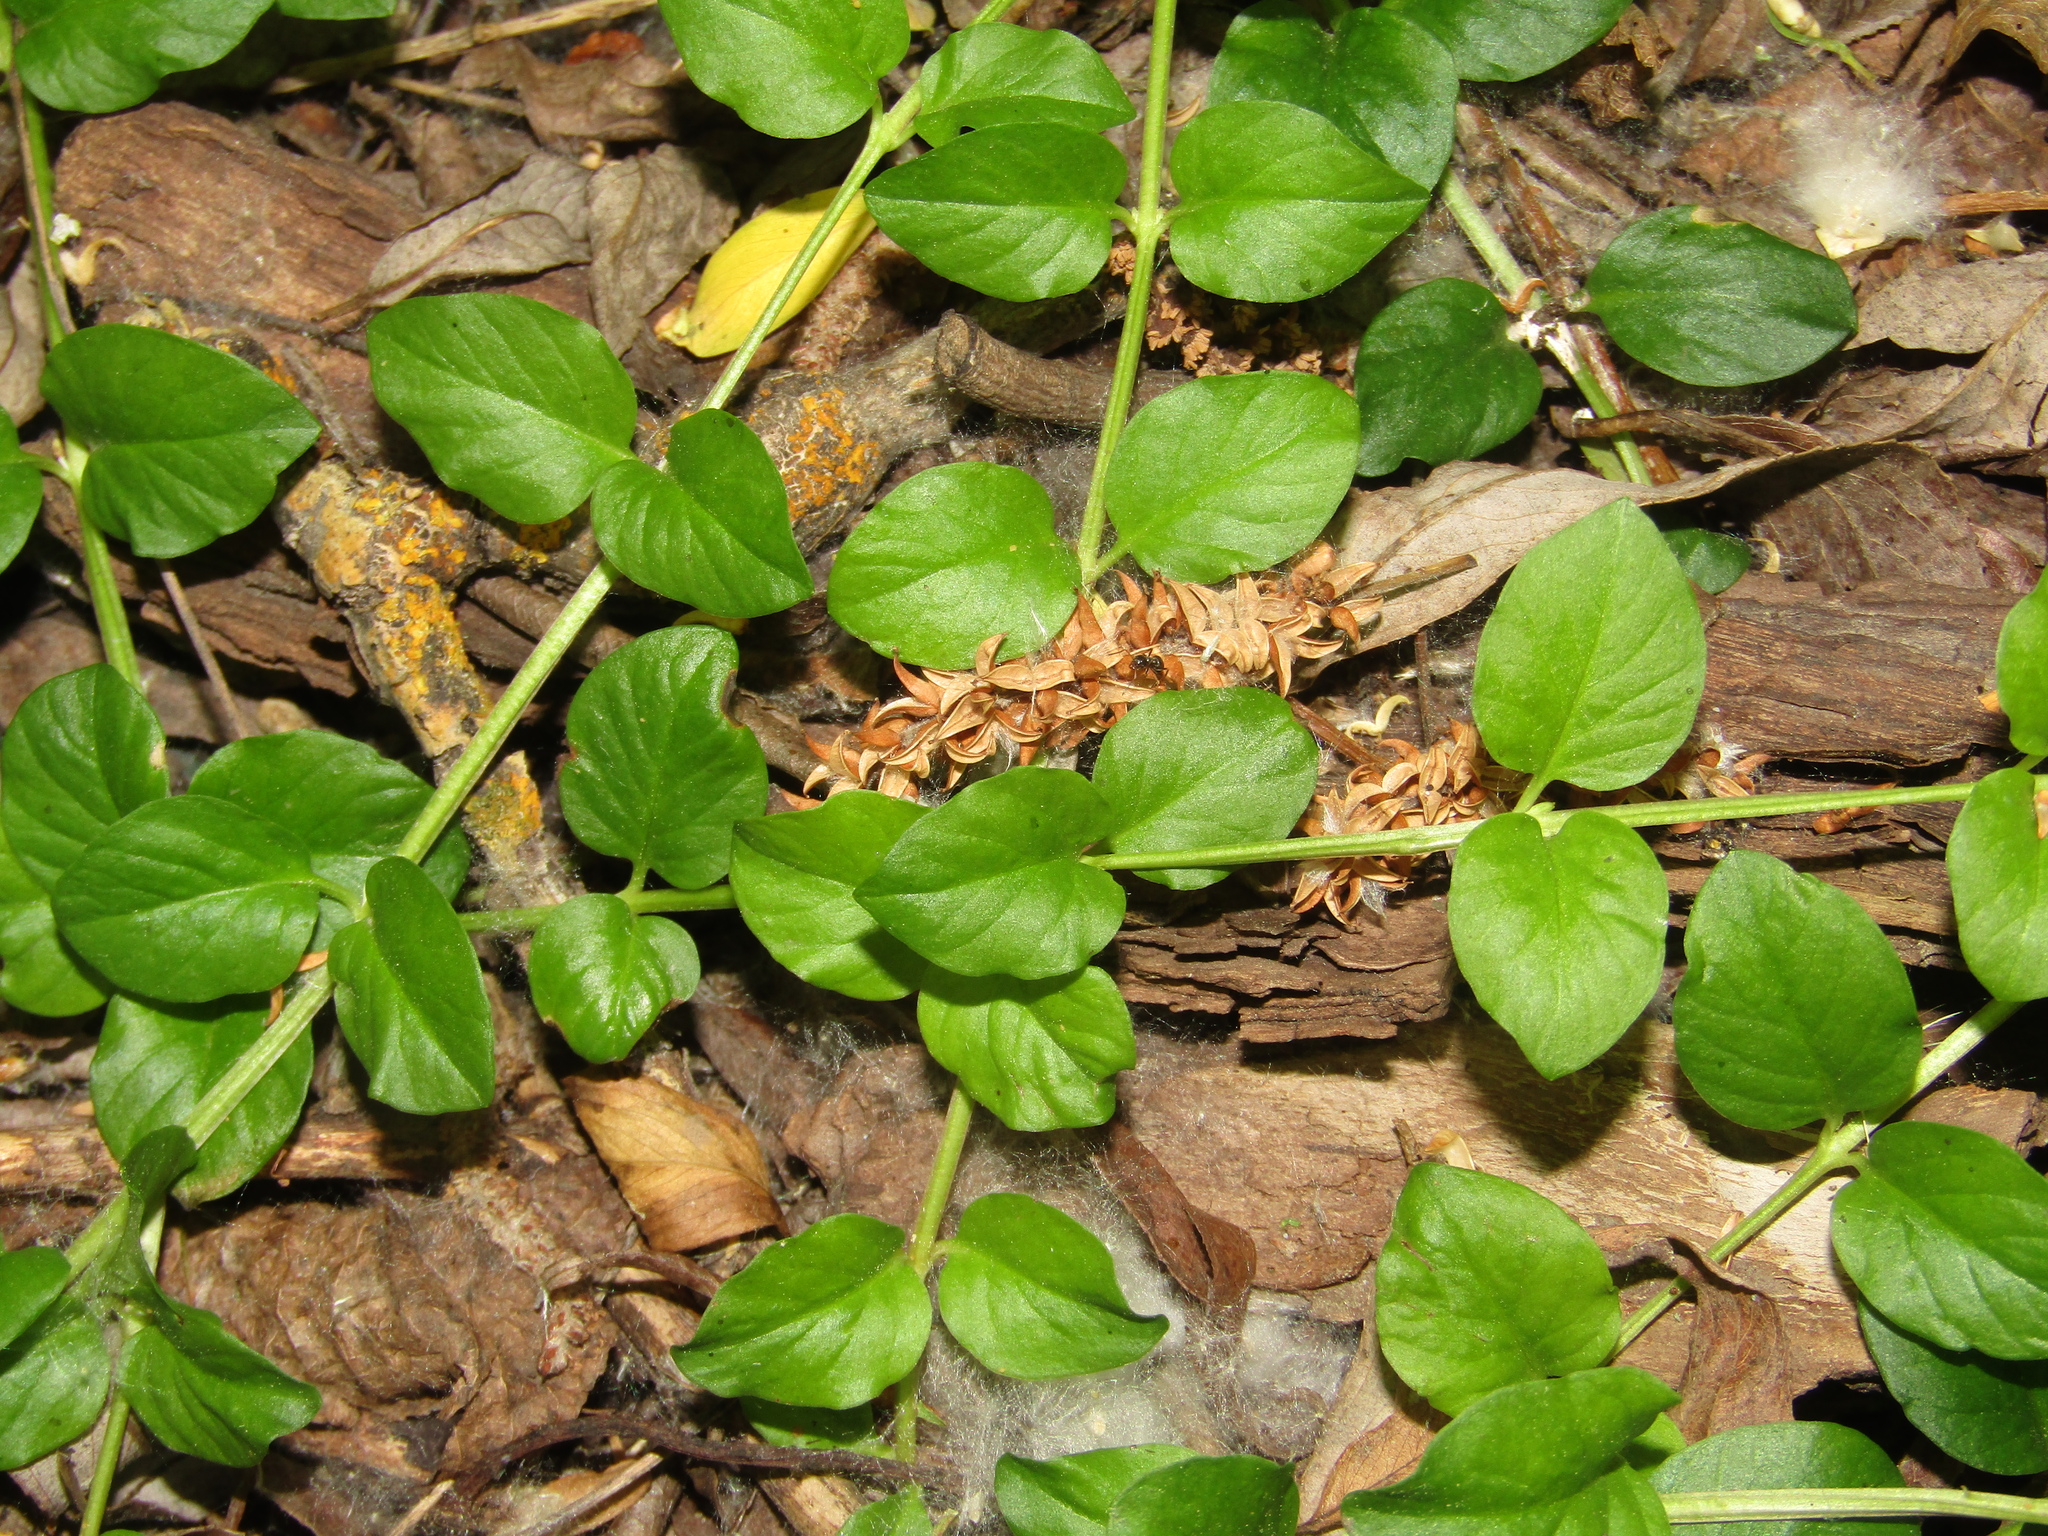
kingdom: Plantae
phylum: Tracheophyta
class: Magnoliopsida
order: Ericales
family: Primulaceae
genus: Lysimachia
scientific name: Lysimachia nummularia
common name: Moneywort
